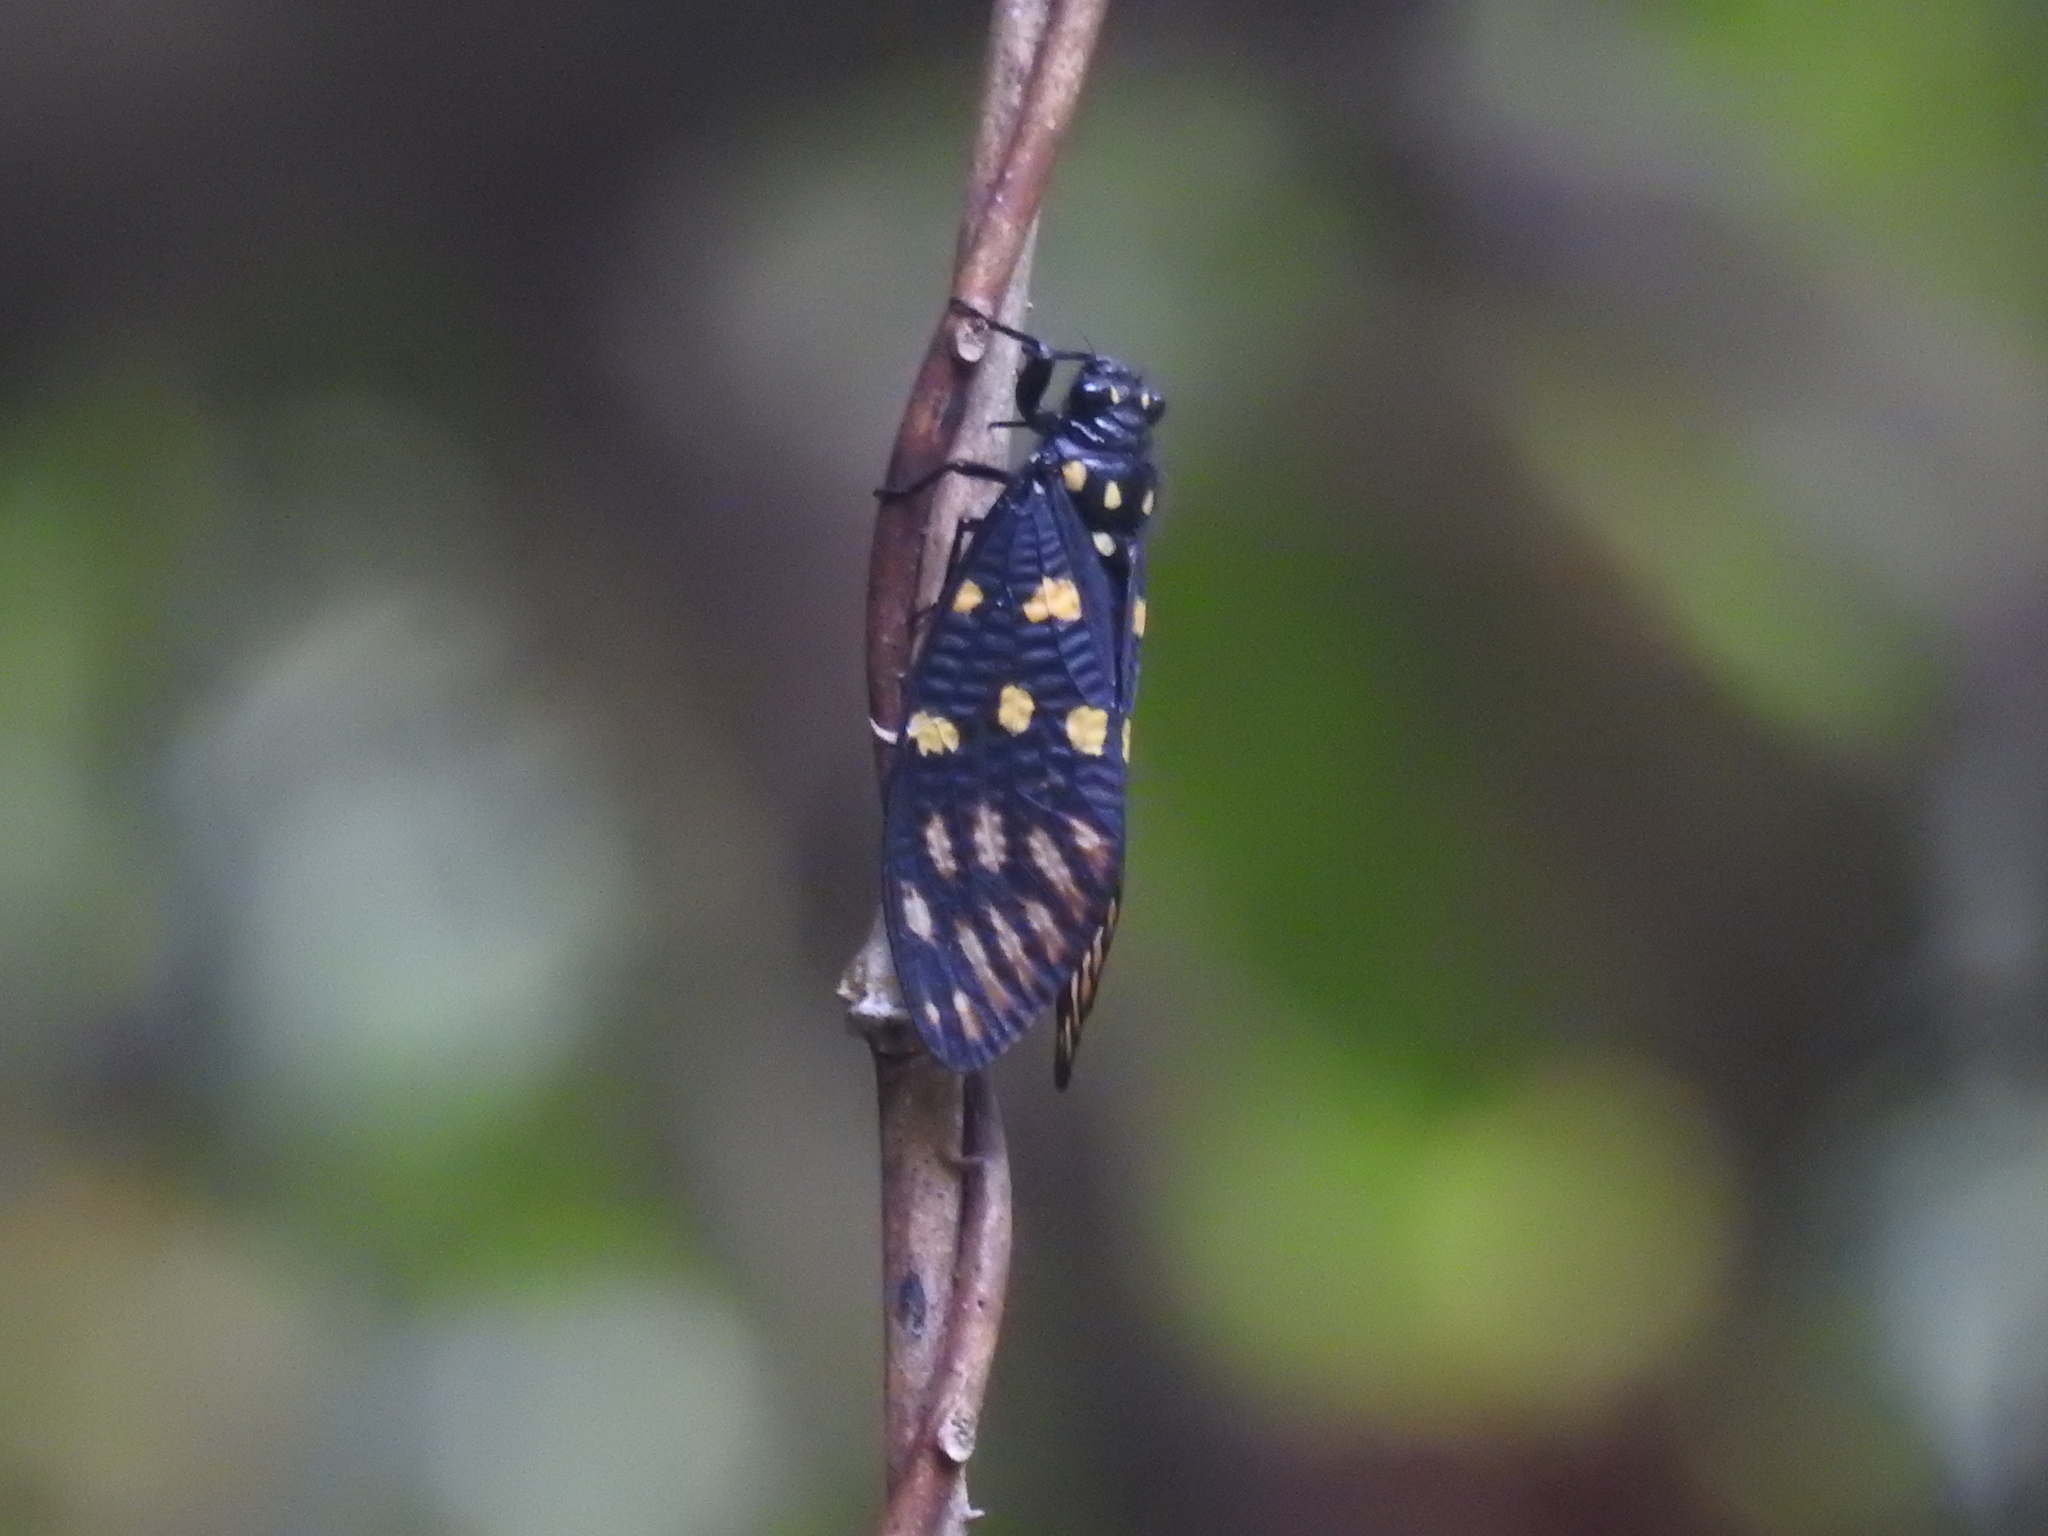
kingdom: Animalia
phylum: Arthropoda
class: Insecta
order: Hemiptera
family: Cicadidae
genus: Gaeana
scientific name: Gaeana maculata
